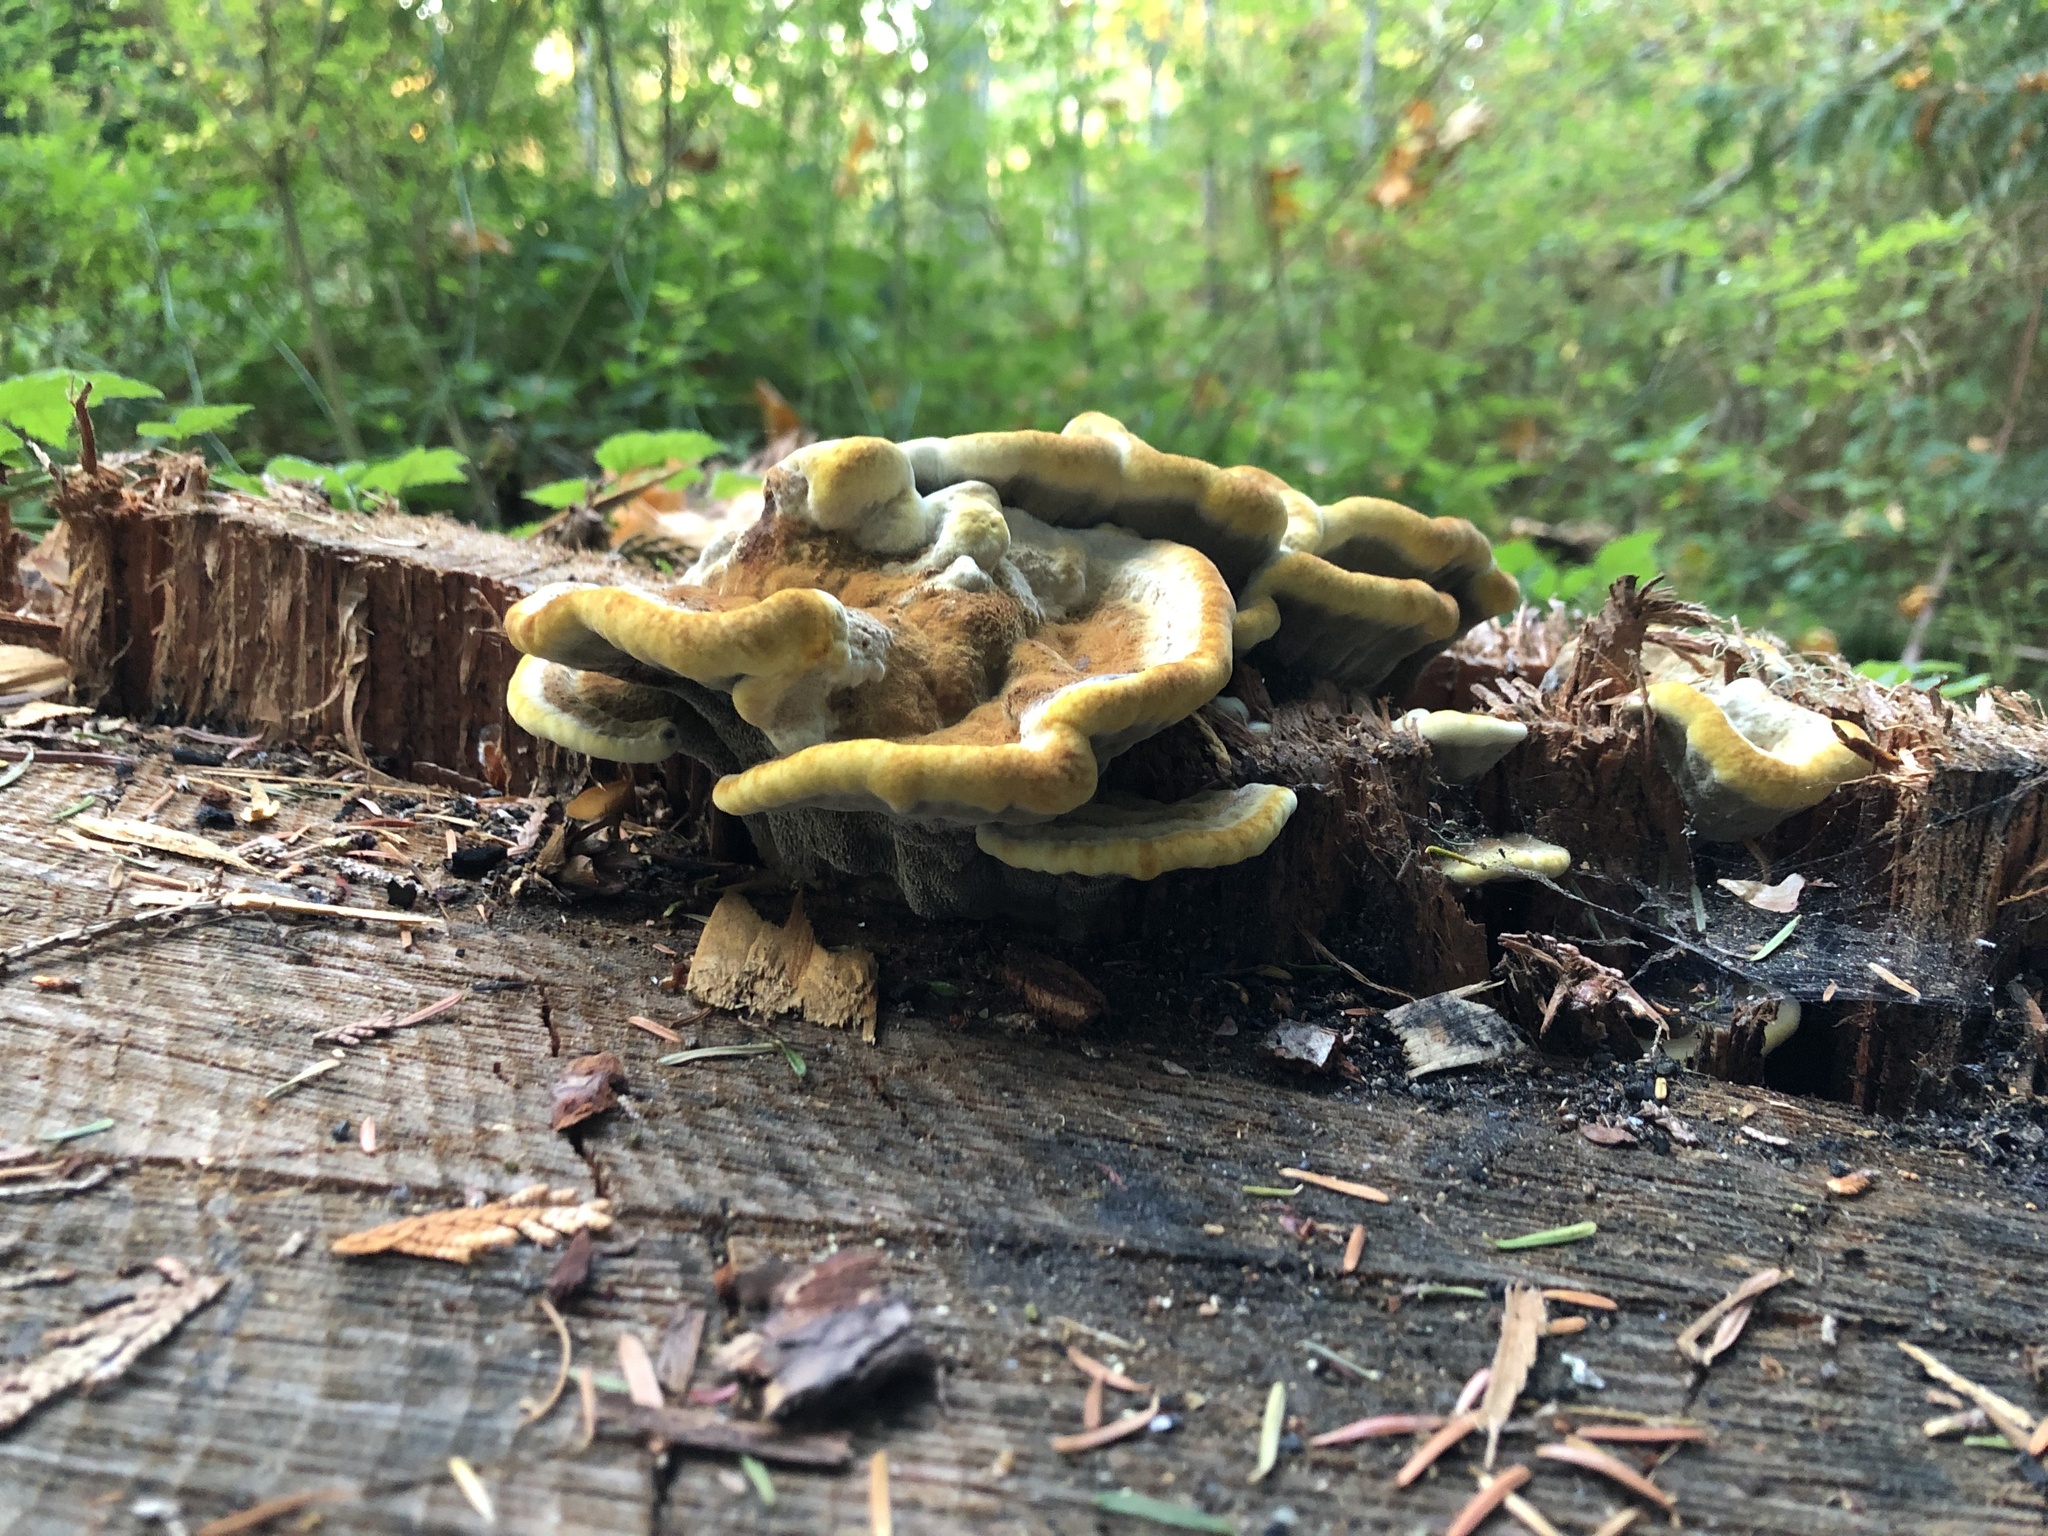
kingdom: Fungi
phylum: Basidiomycota
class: Agaricomycetes
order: Polyporales
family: Laetiporaceae
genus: Phaeolus
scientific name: Phaeolus schweinitzii
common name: Dyer's mazegill
